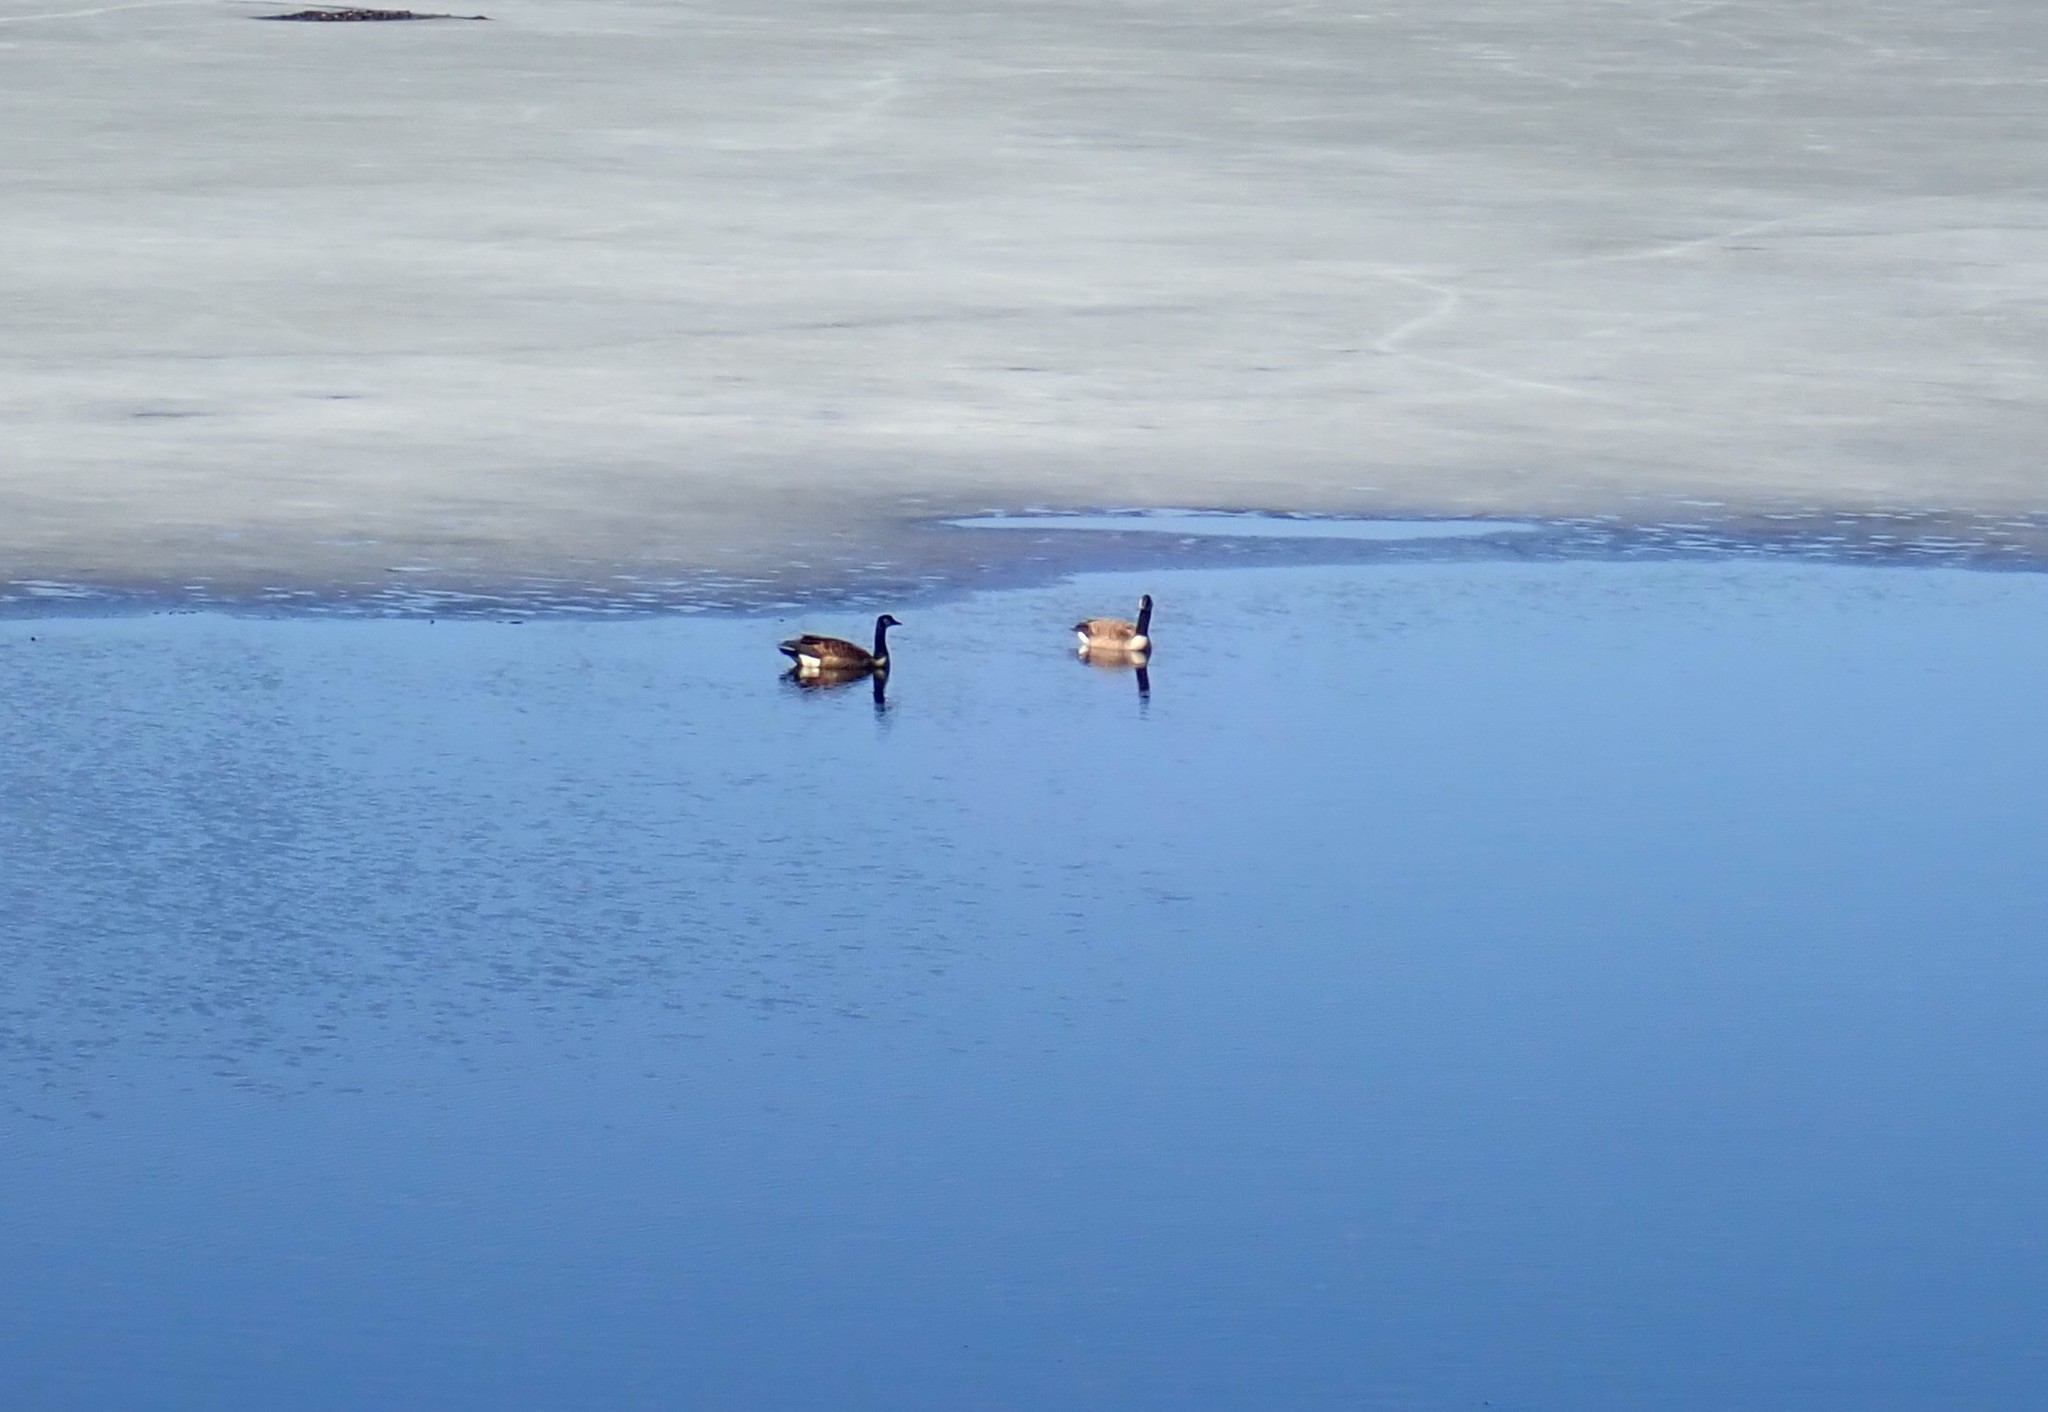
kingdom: Animalia
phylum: Chordata
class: Aves
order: Anseriformes
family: Anatidae
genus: Branta
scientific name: Branta canadensis
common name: Canada goose
